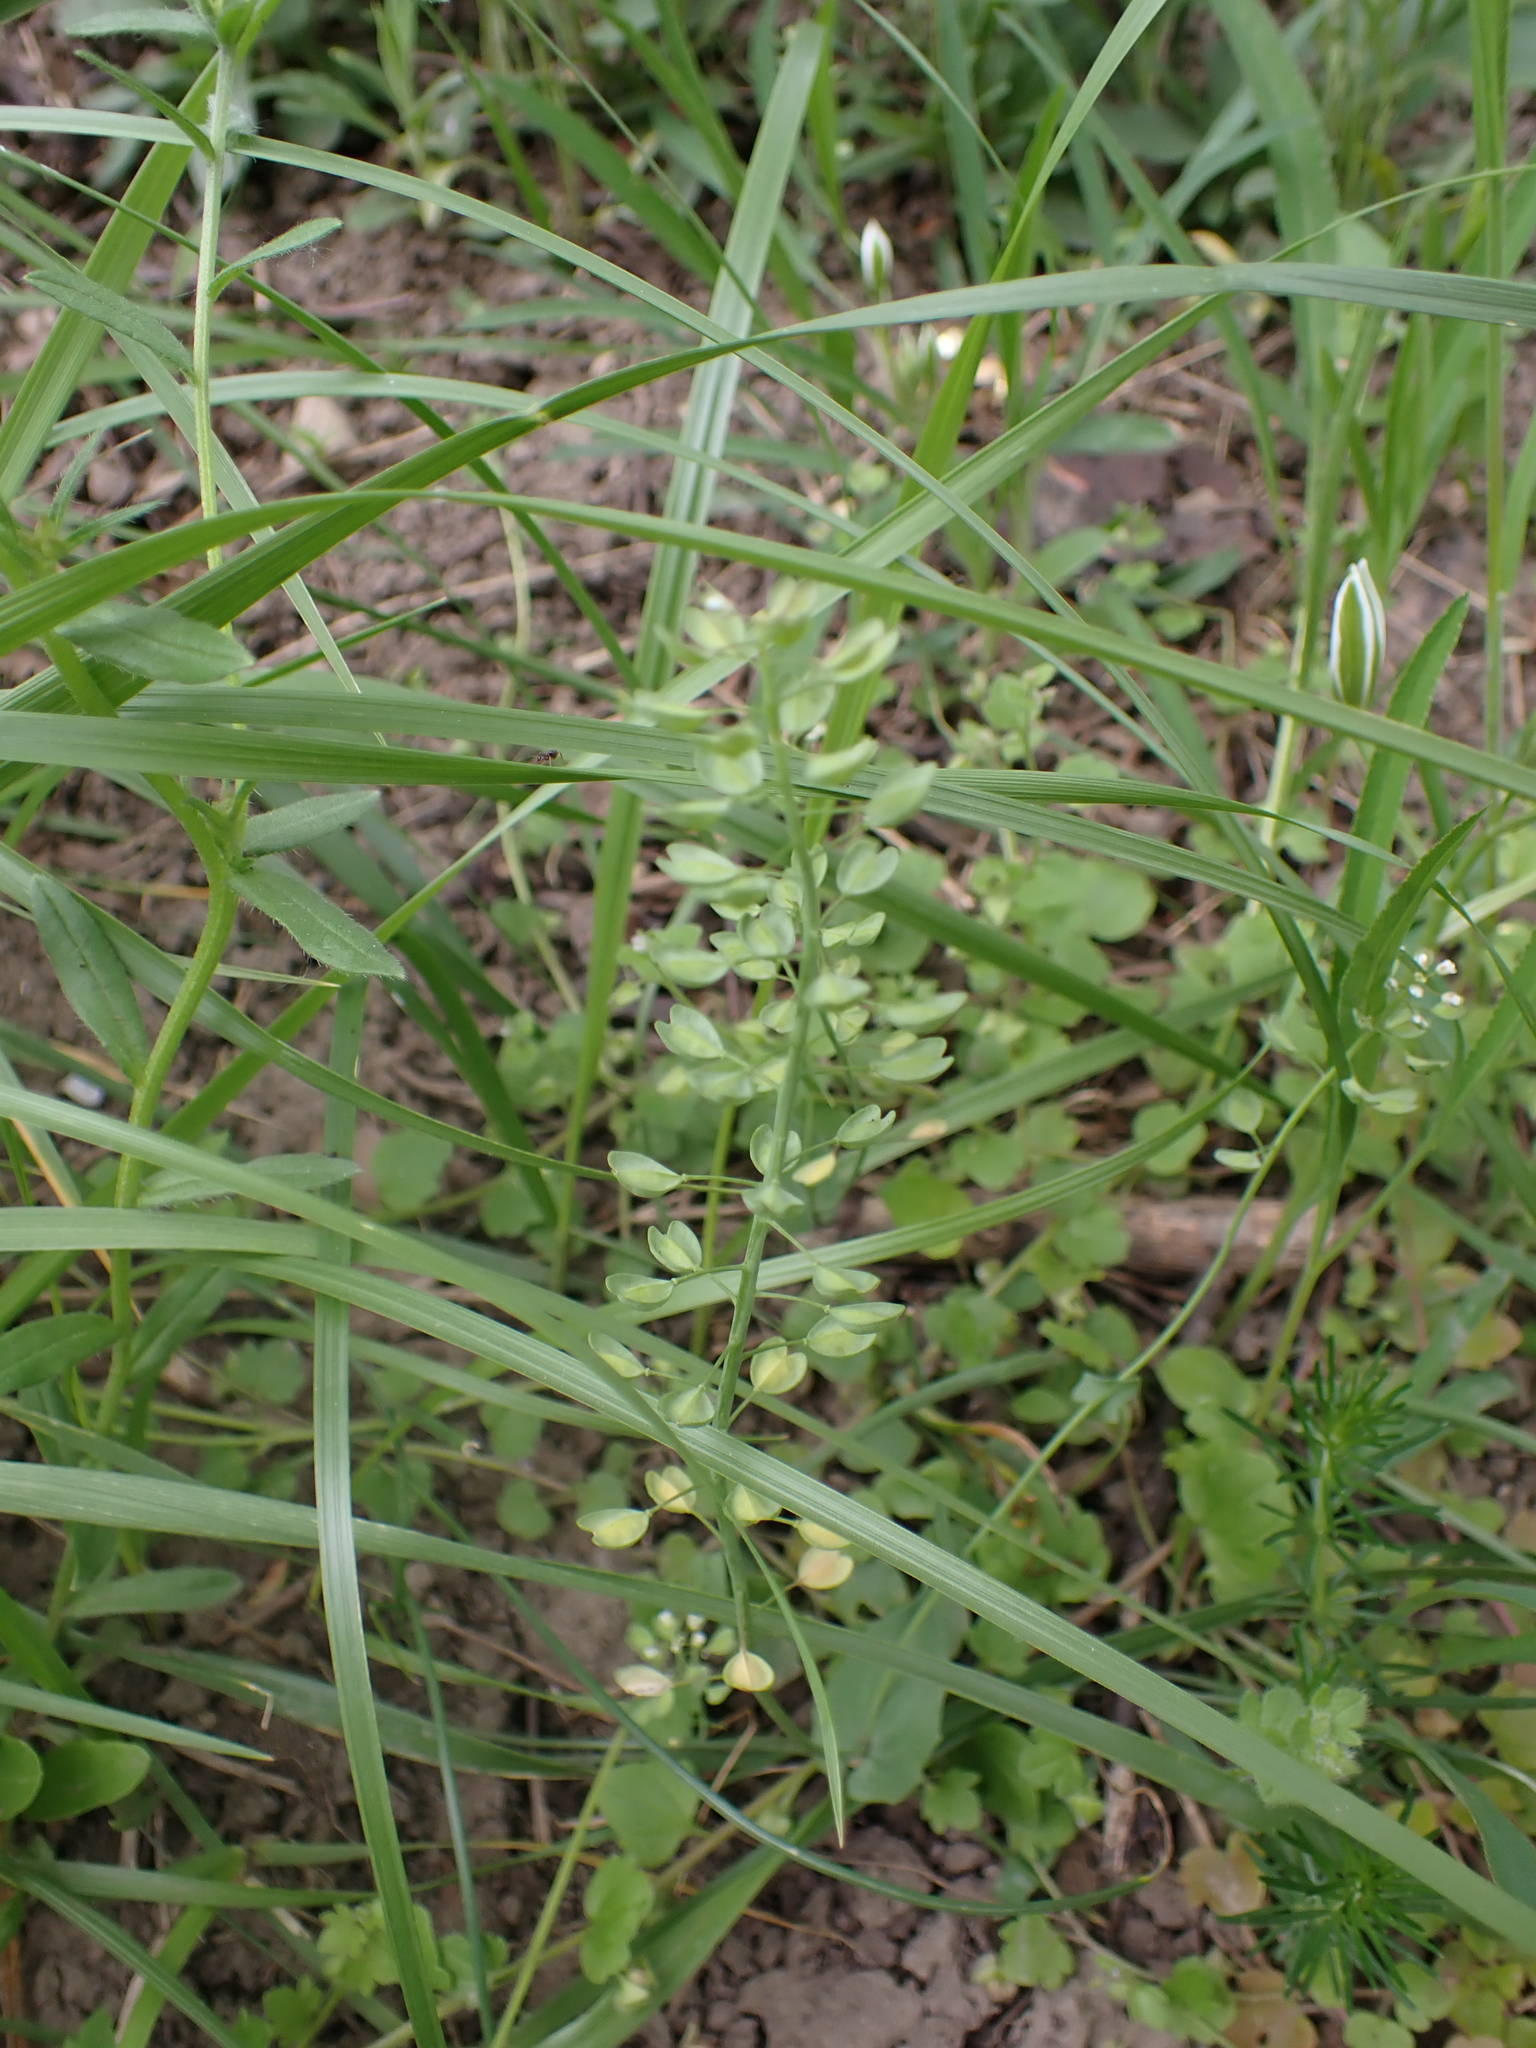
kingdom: Plantae
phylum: Tracheophyta
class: Magnoliopsida
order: Brassicales
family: Brassicaceae
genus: Noccaea
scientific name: Noccaea perfoliata
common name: Perfoliate pennycress
